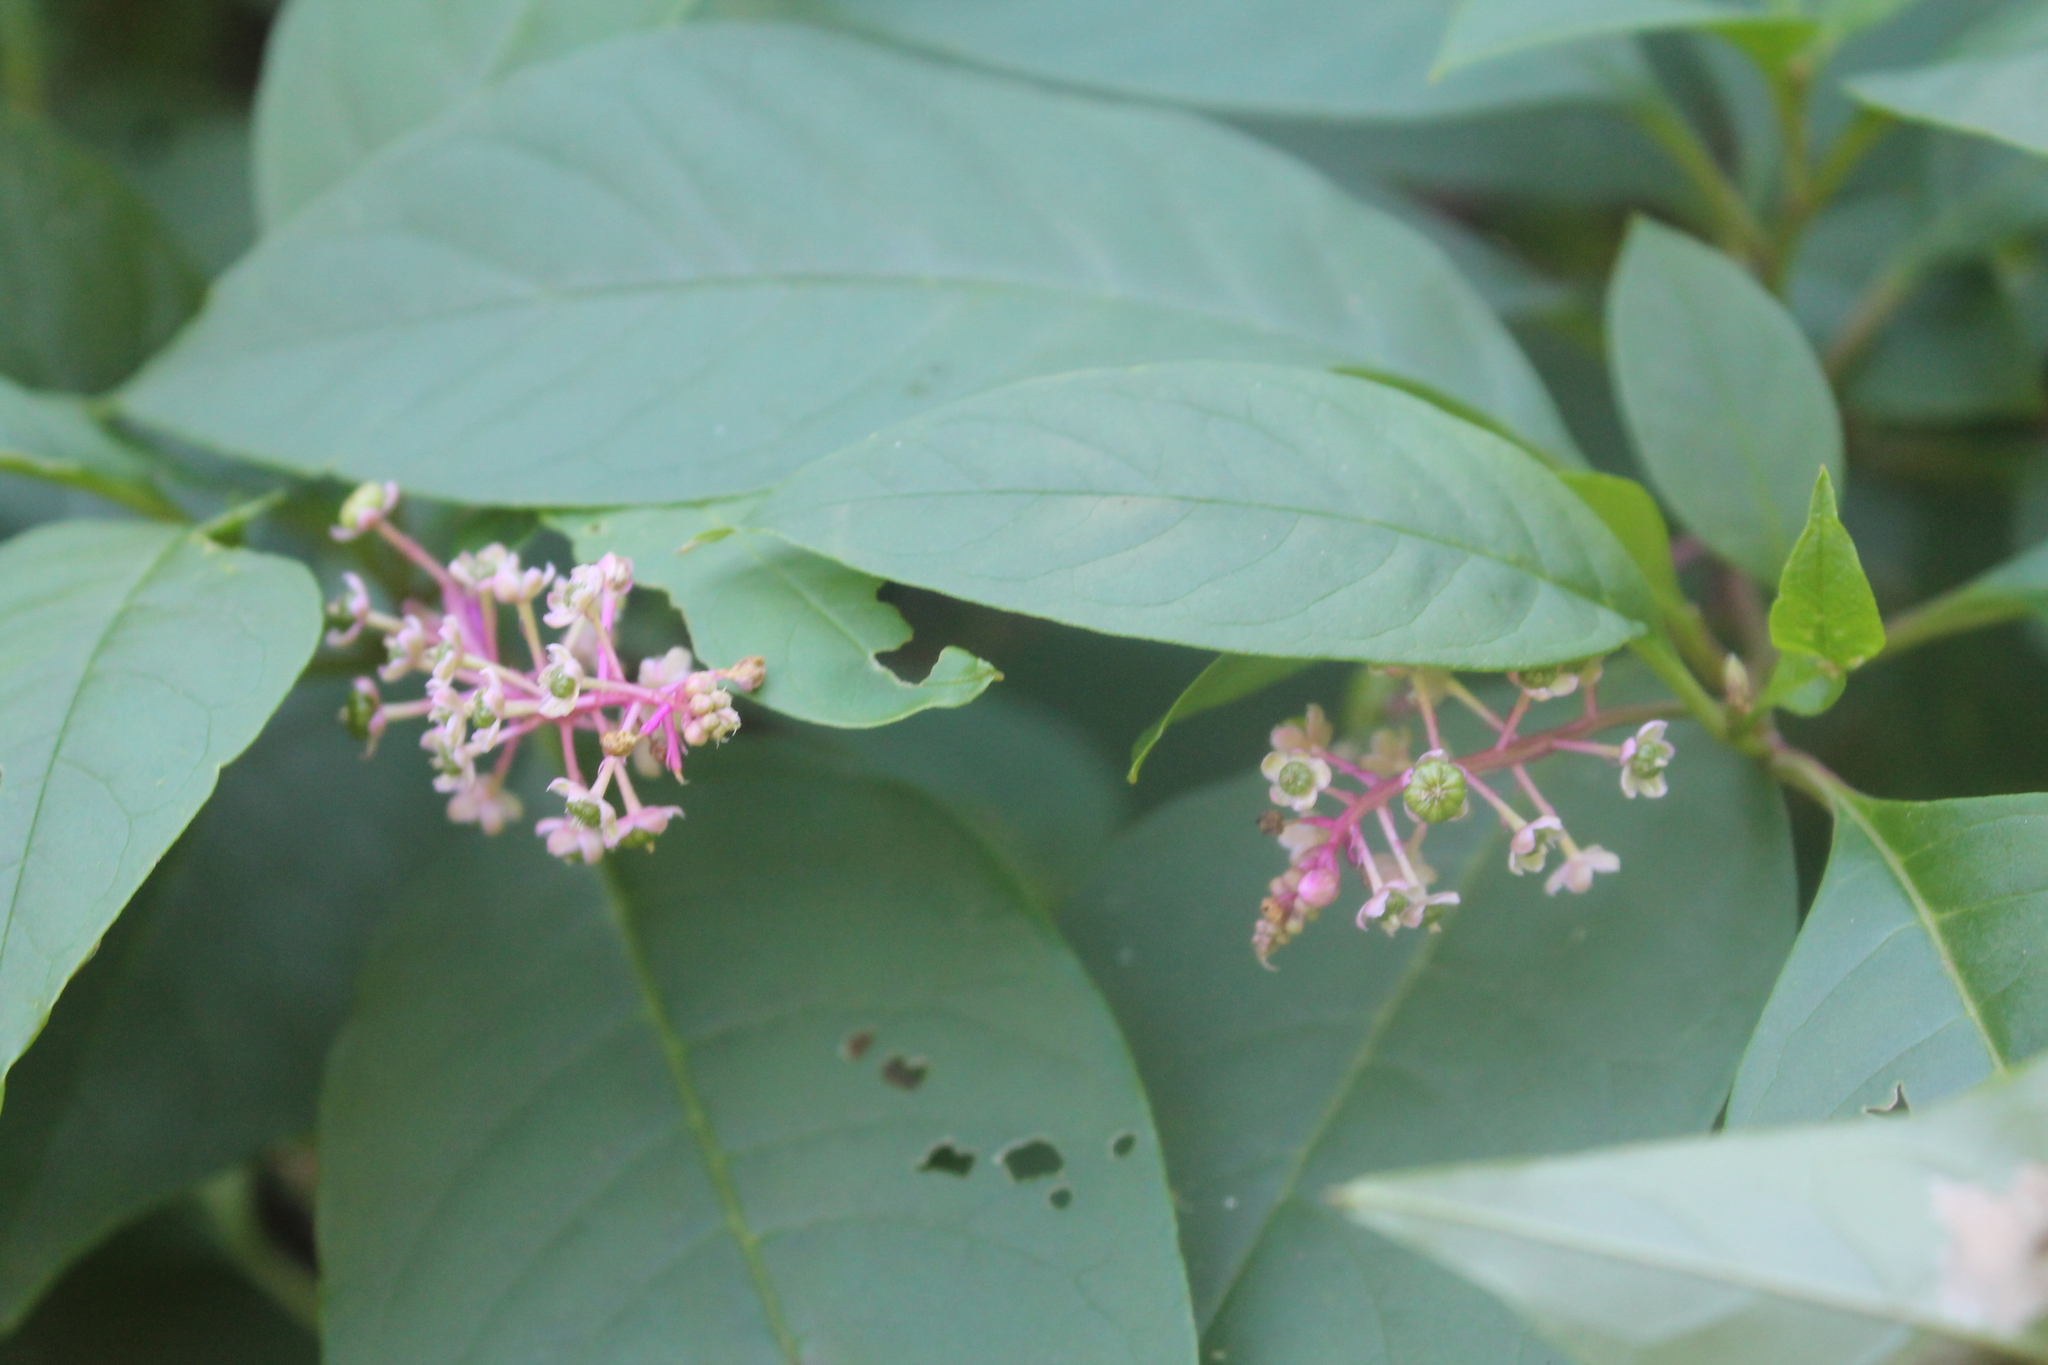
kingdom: Plantae
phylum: Tracheophyta
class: Magnoliopsida
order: Caryophyllales
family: Phytolaccaceae
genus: Phytolacca
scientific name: Phytolacca americana
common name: American pokeweed
